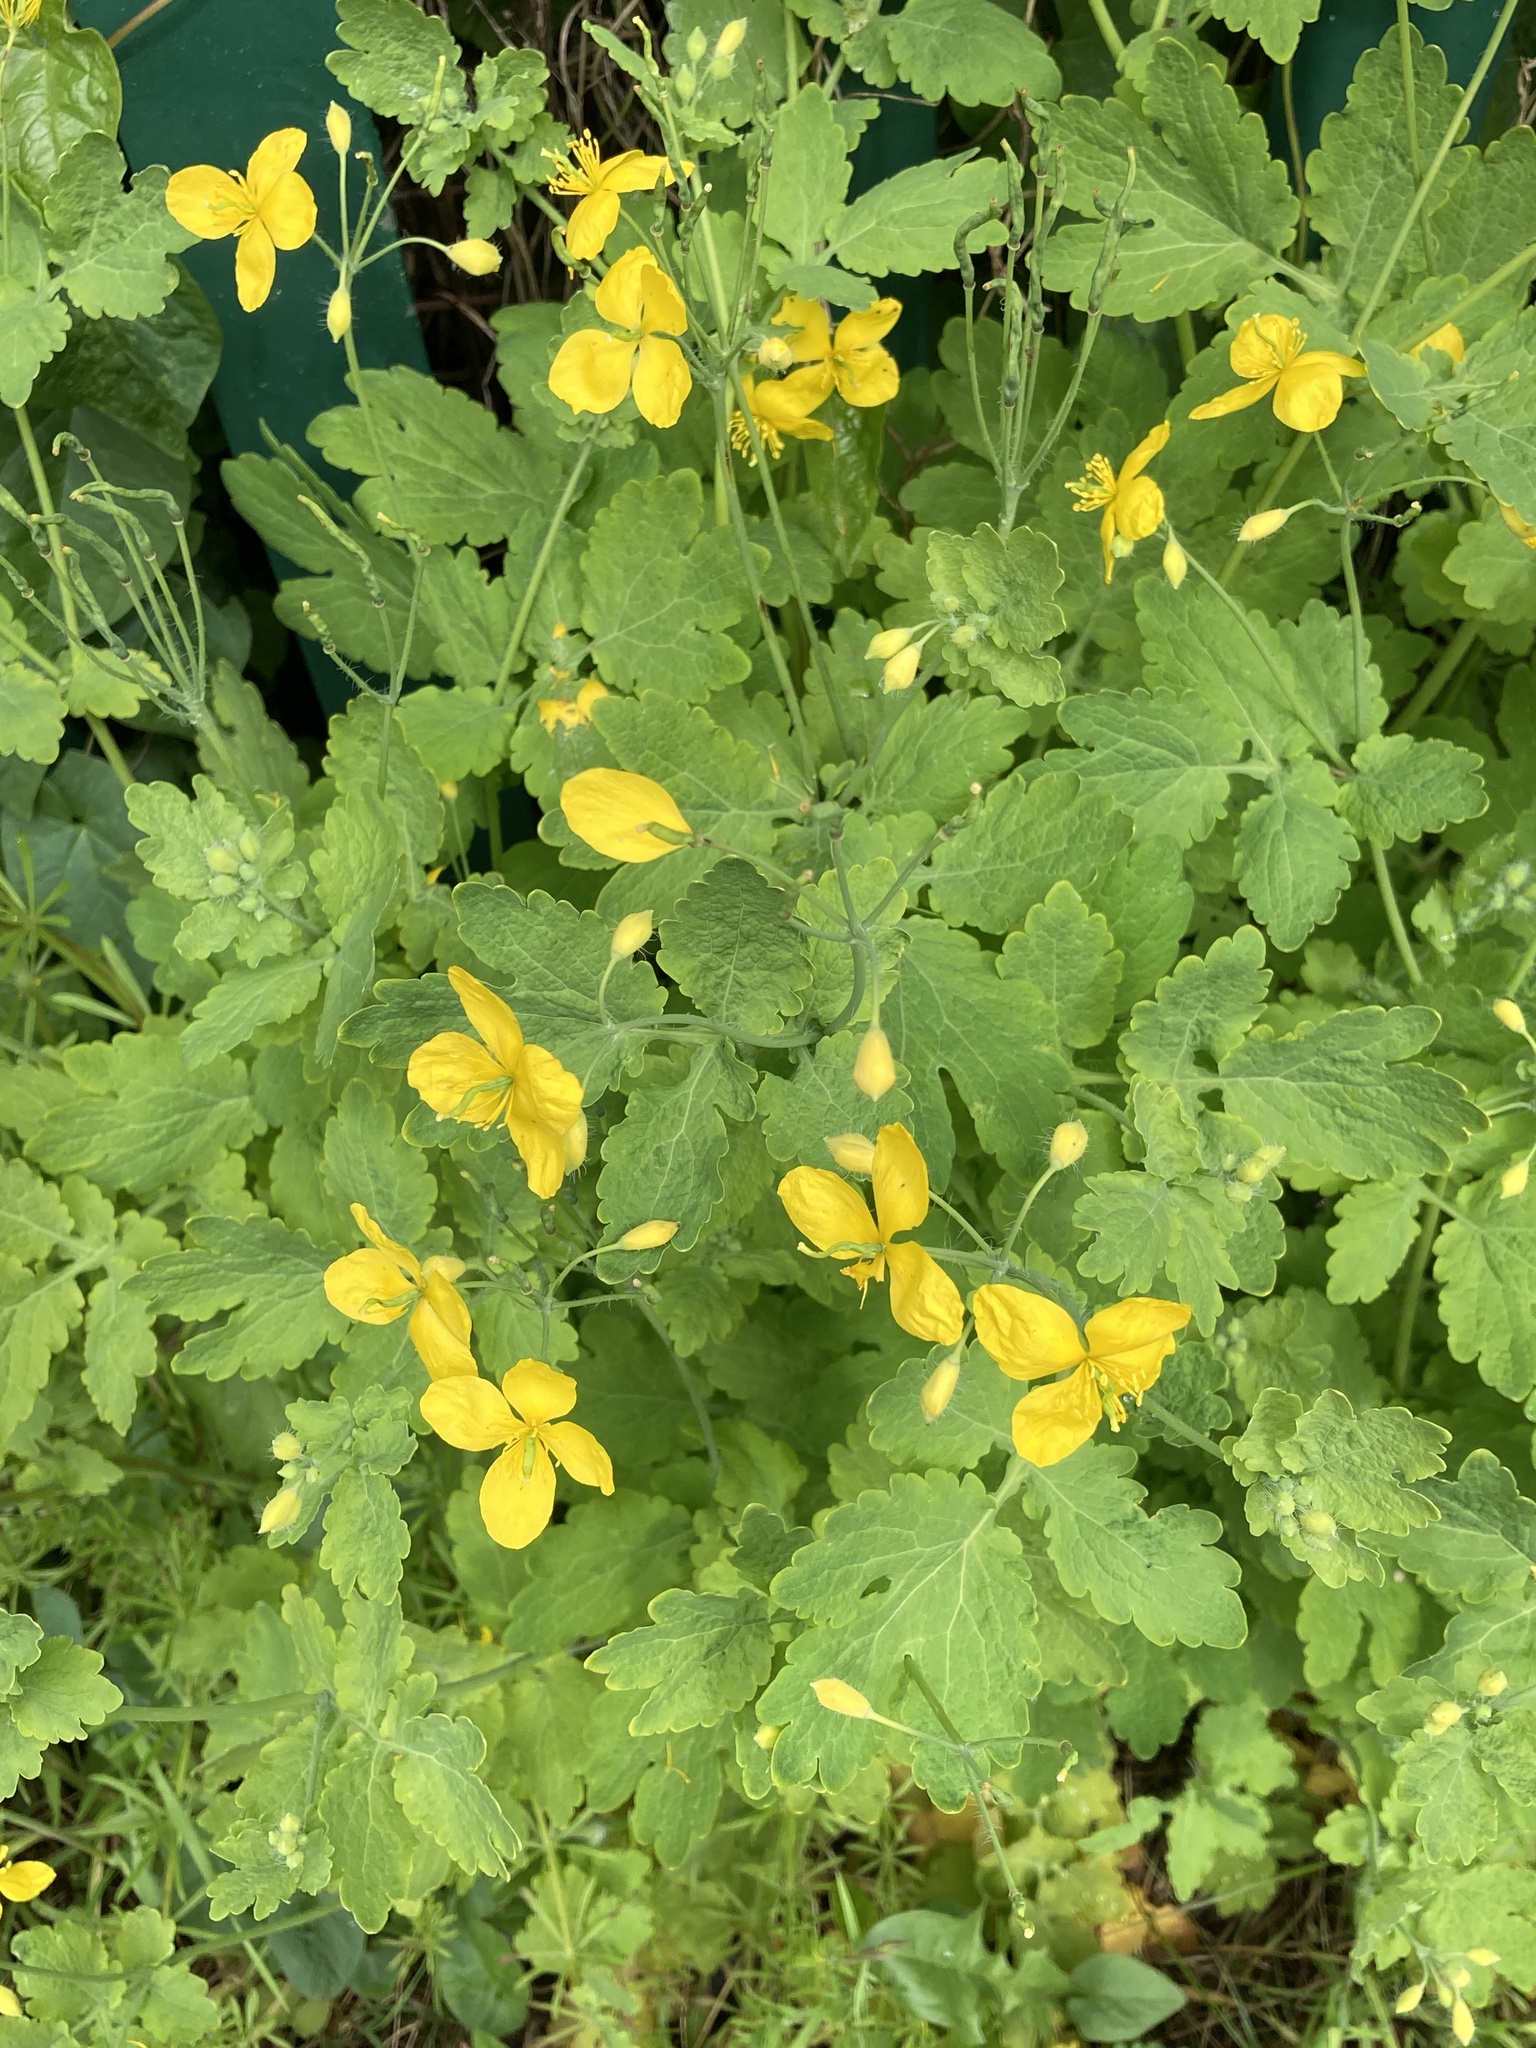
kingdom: Plantae
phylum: Tracheophyta
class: Magnoliopsida
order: Ranunculales
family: Papaveraceae
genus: Chelidonium
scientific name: Chelidonium majus
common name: Greater celandine
